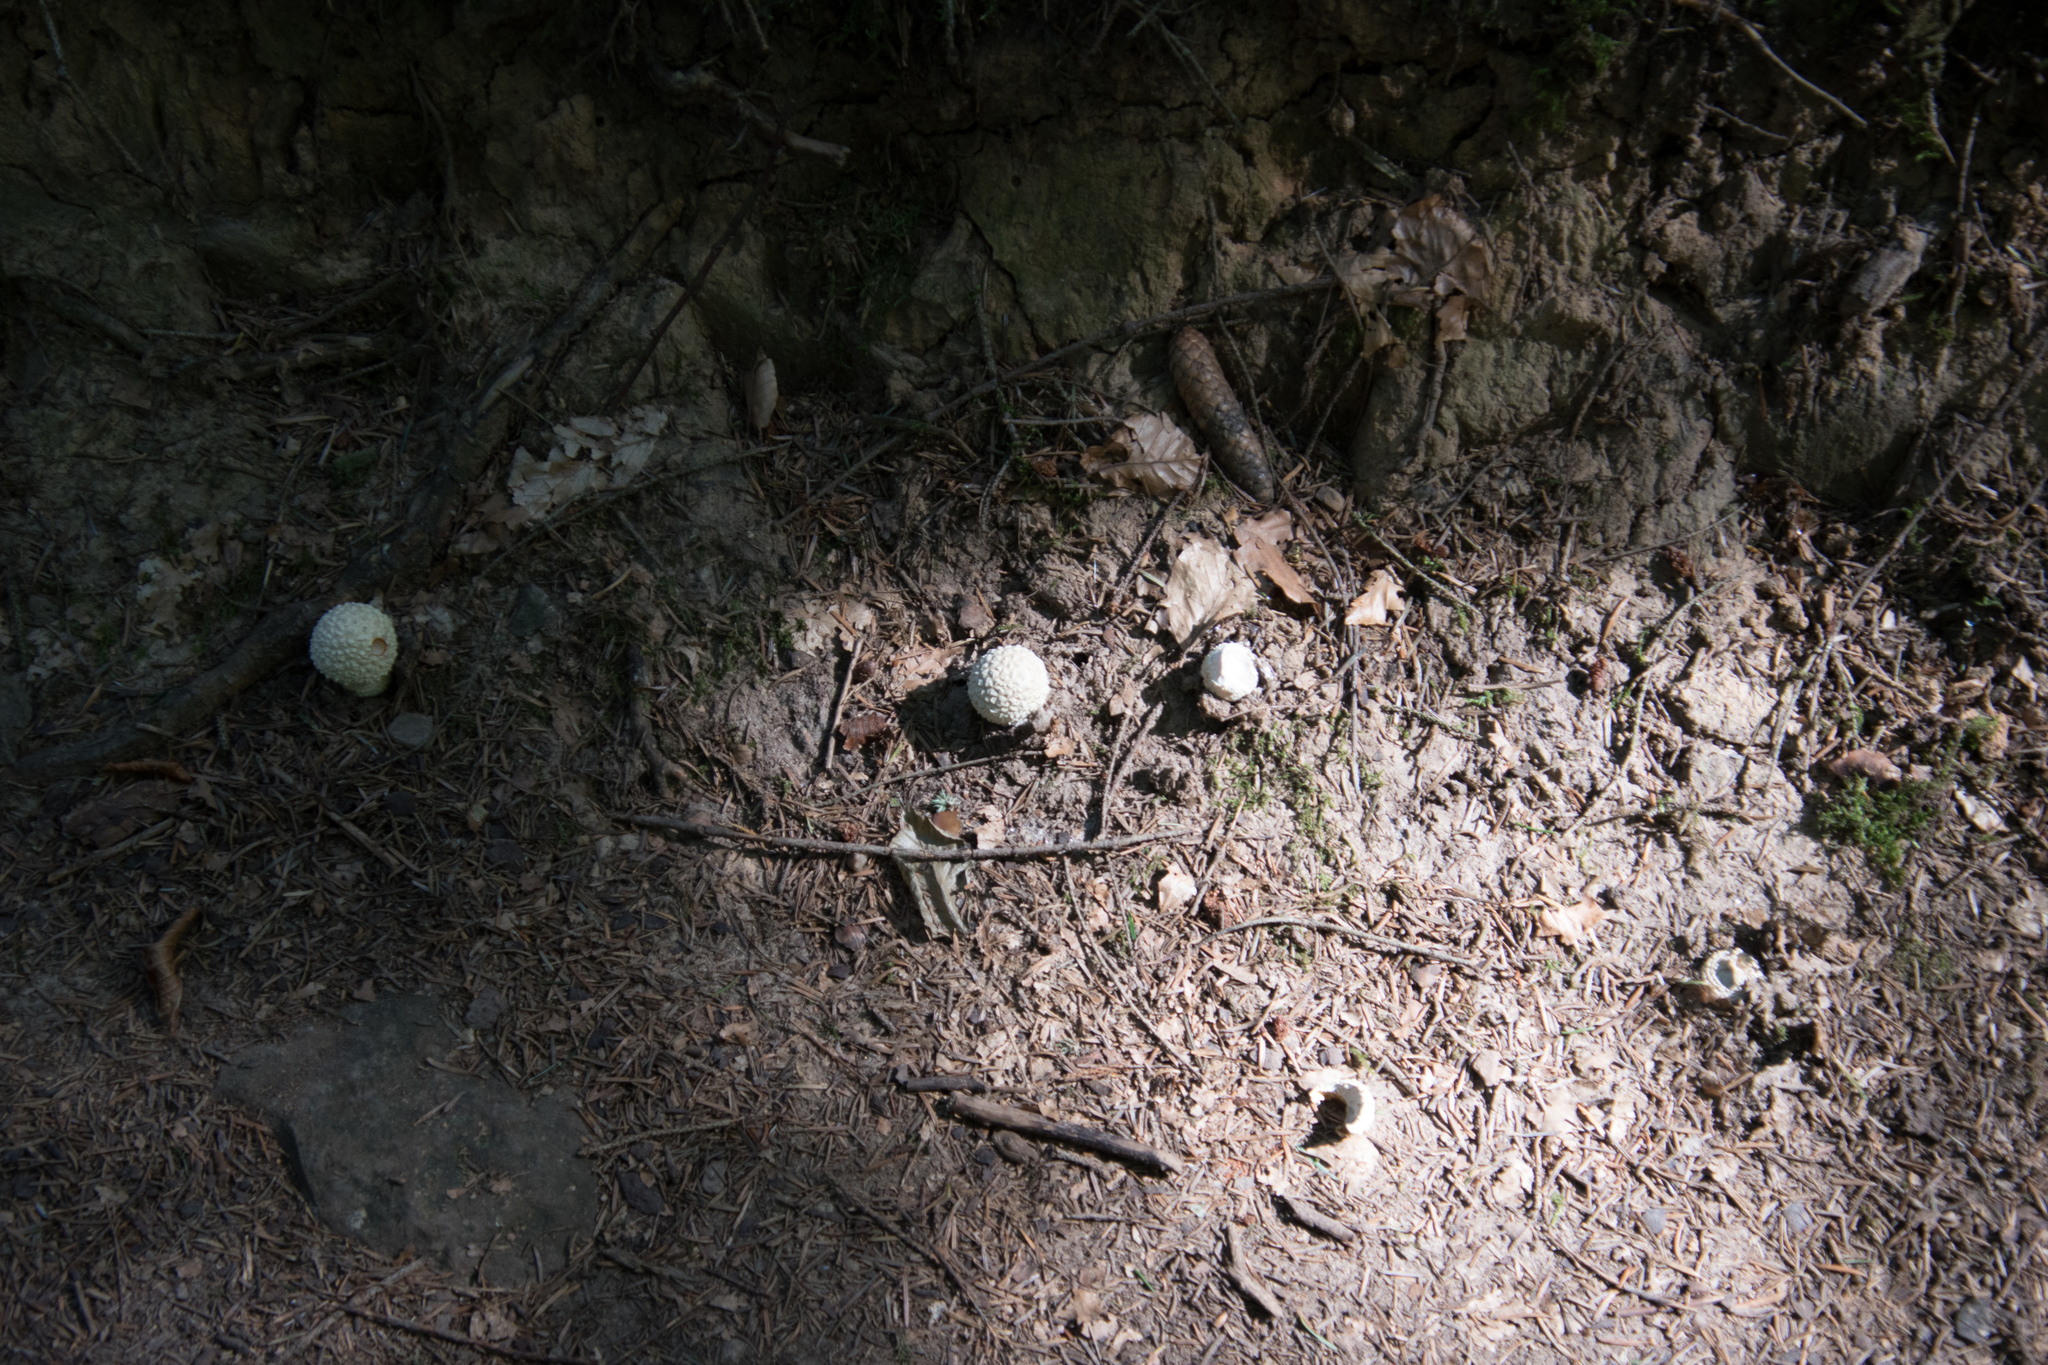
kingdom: Fungi
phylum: Basidiomycota
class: Agaricomycetes
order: Agaricales
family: Amanitaceae
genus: Amanita
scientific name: Amanita muscaria
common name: Fly agaric
